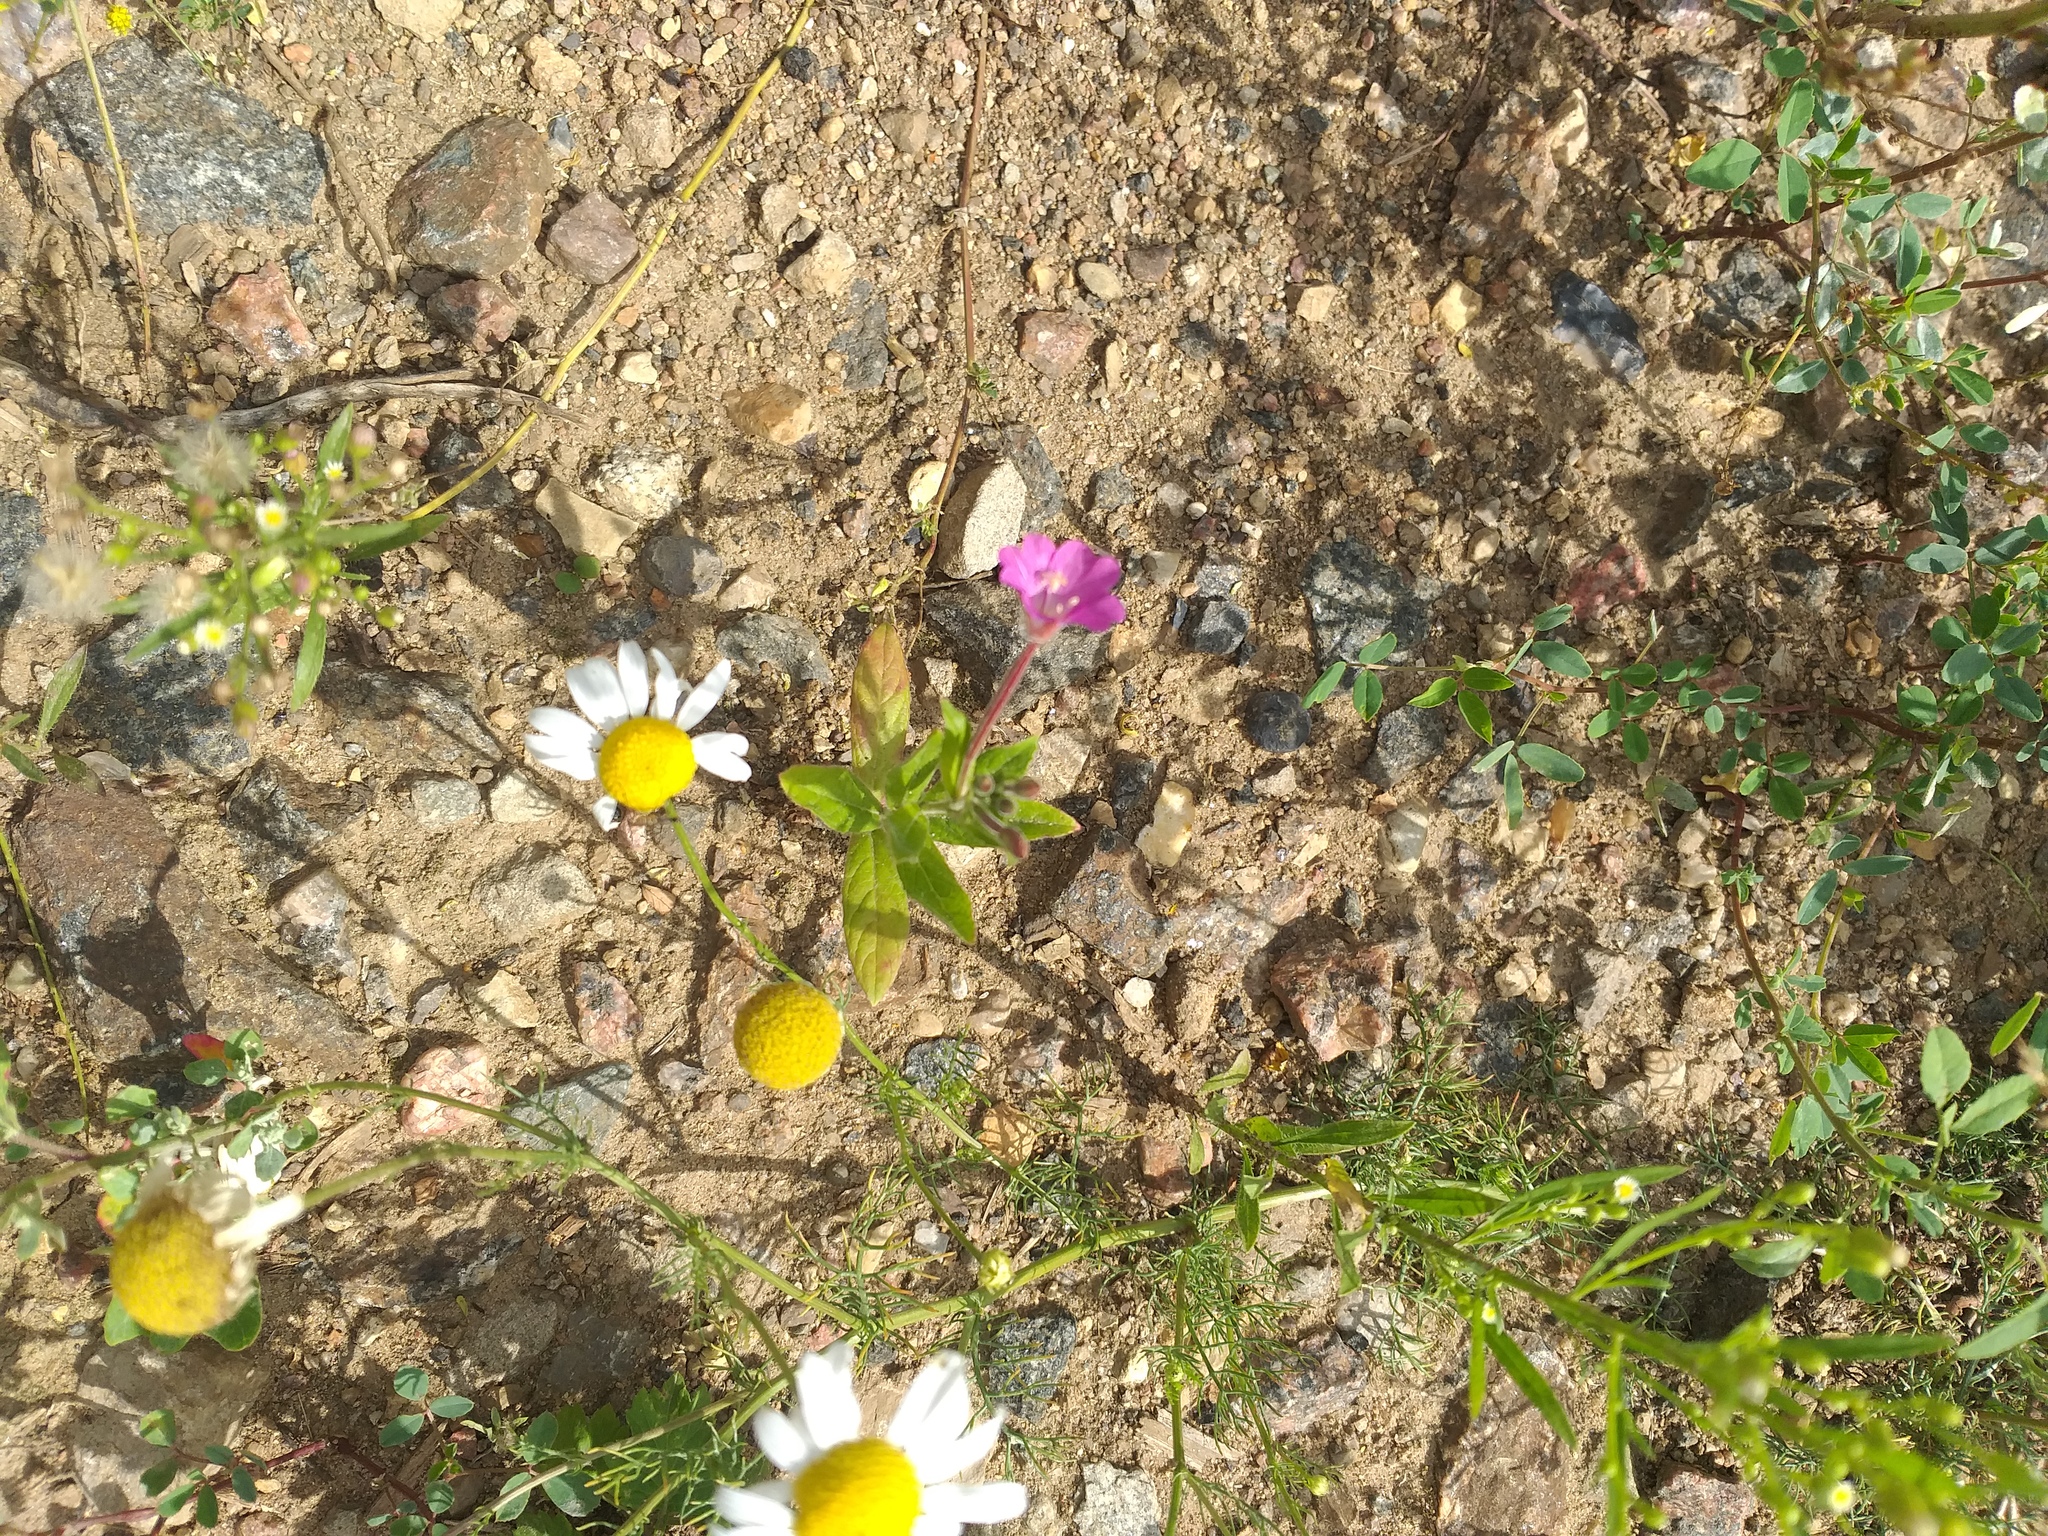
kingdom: Plantae
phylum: Tracheophyta
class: Magnoliopsida
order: Myrtales
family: Onagraceae
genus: Epilobium
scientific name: Epilobium hirsutum
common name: Great willowherb
